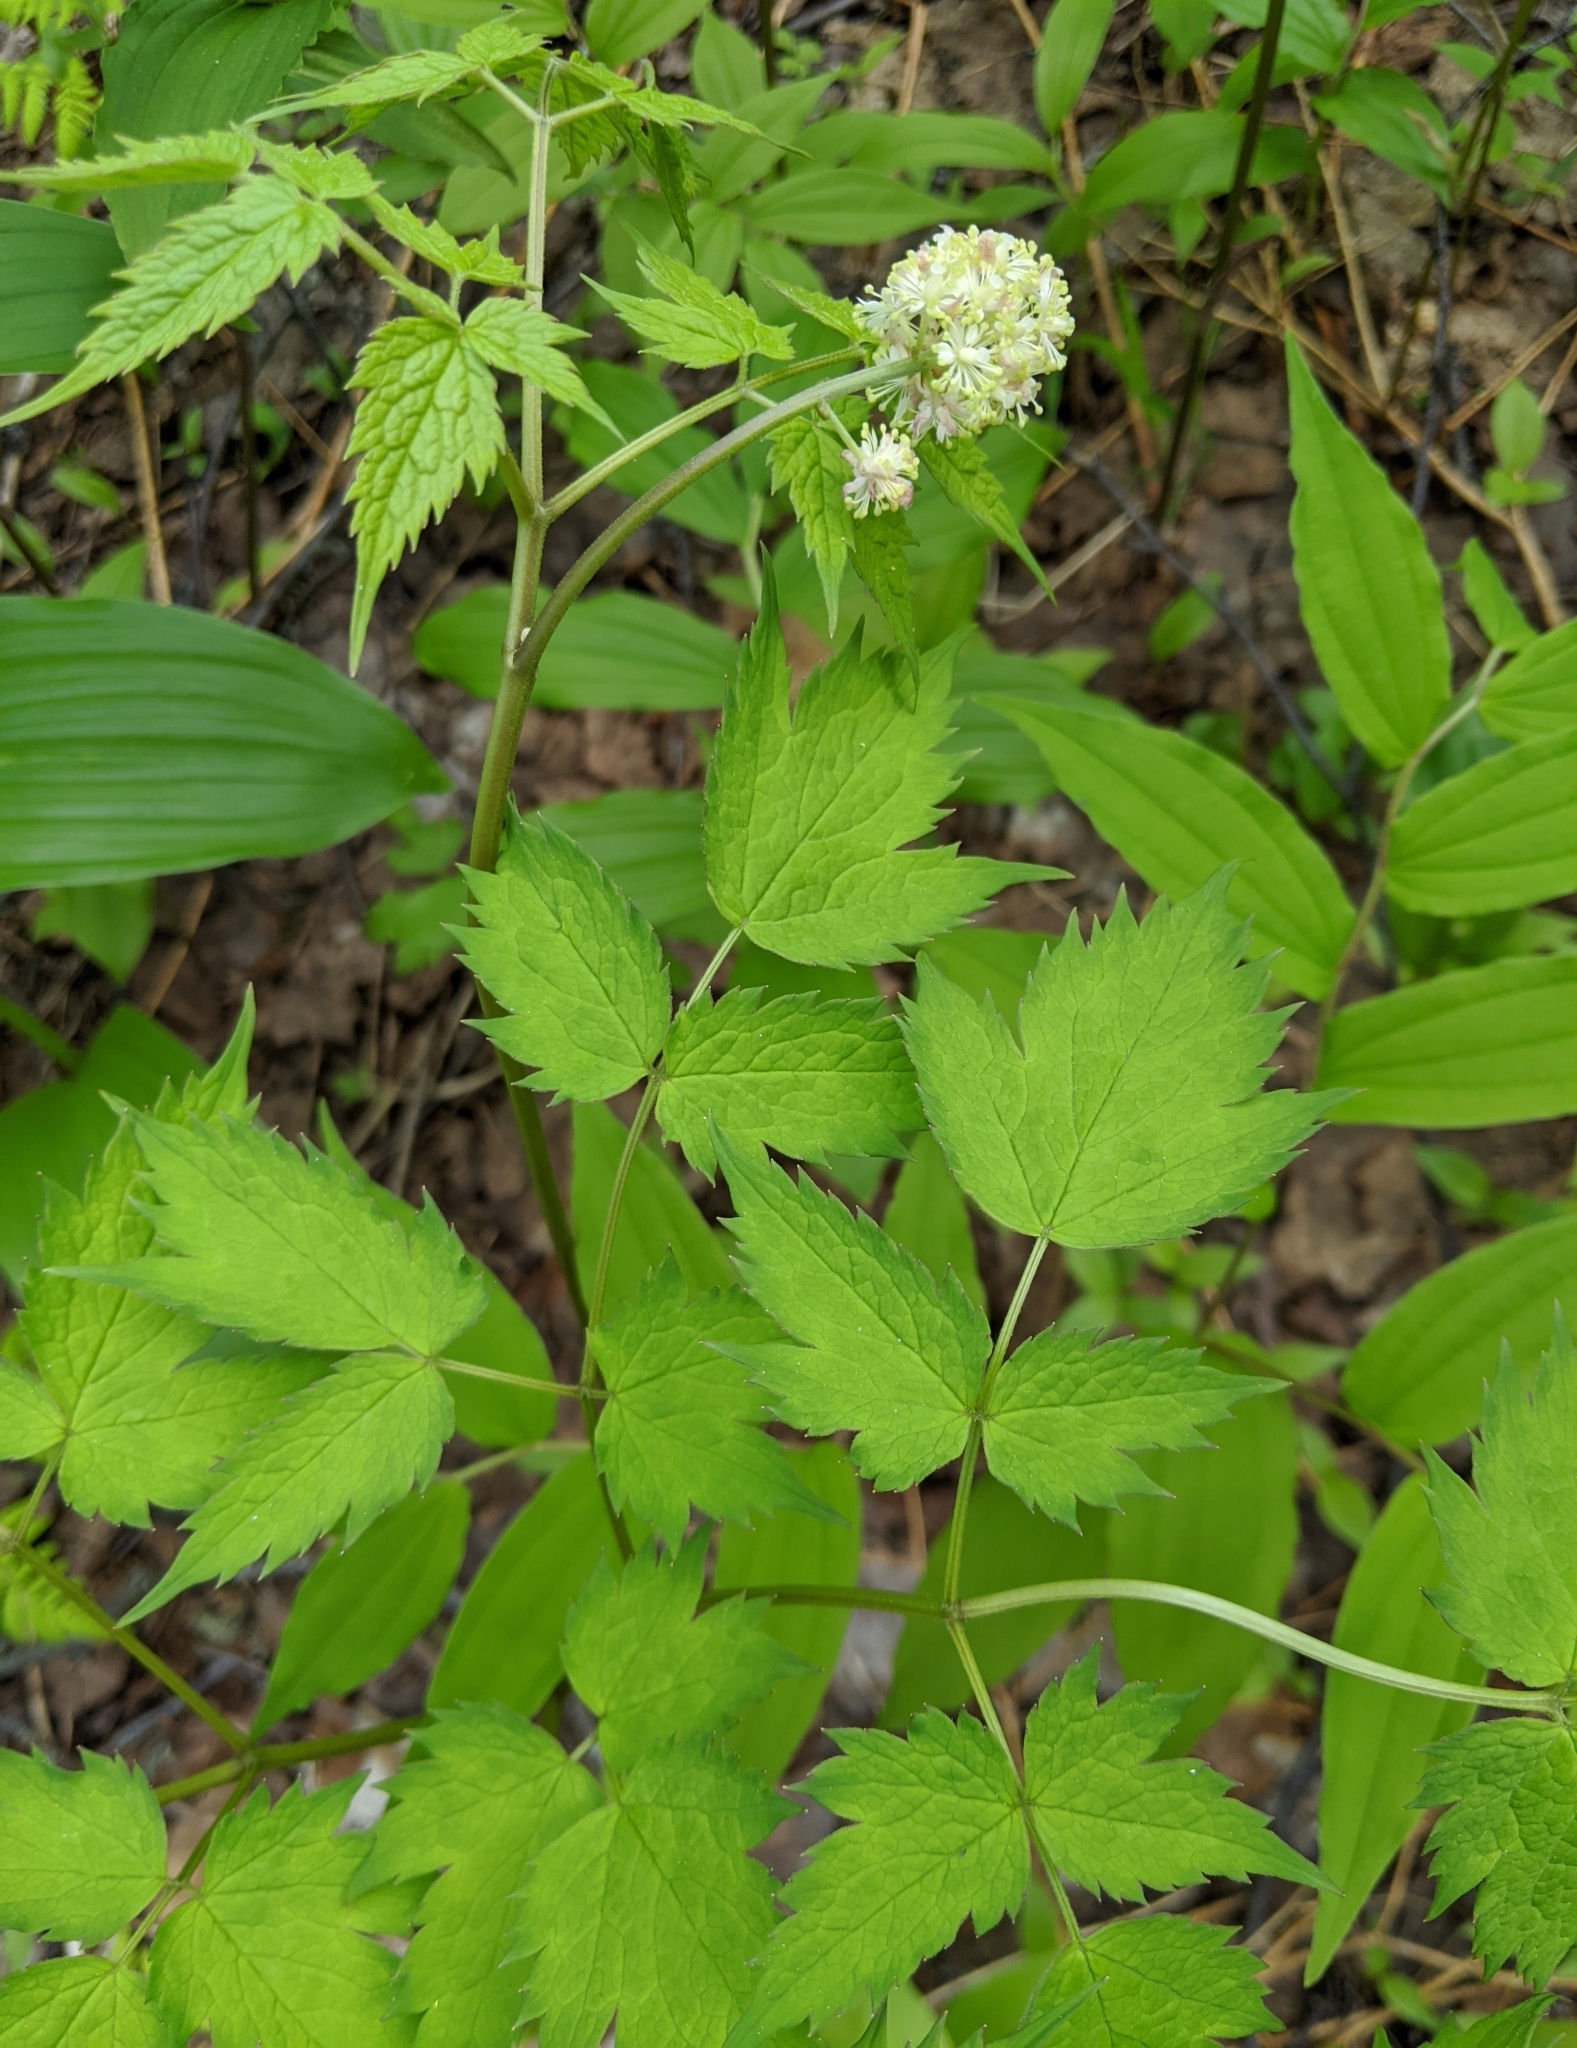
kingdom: Plantae
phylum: Tracheophyta
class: Magnoliopsida
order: Ranunculales
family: Ranunculaceae
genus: Actaea
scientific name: Actaea rubra
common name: Red baneberry
